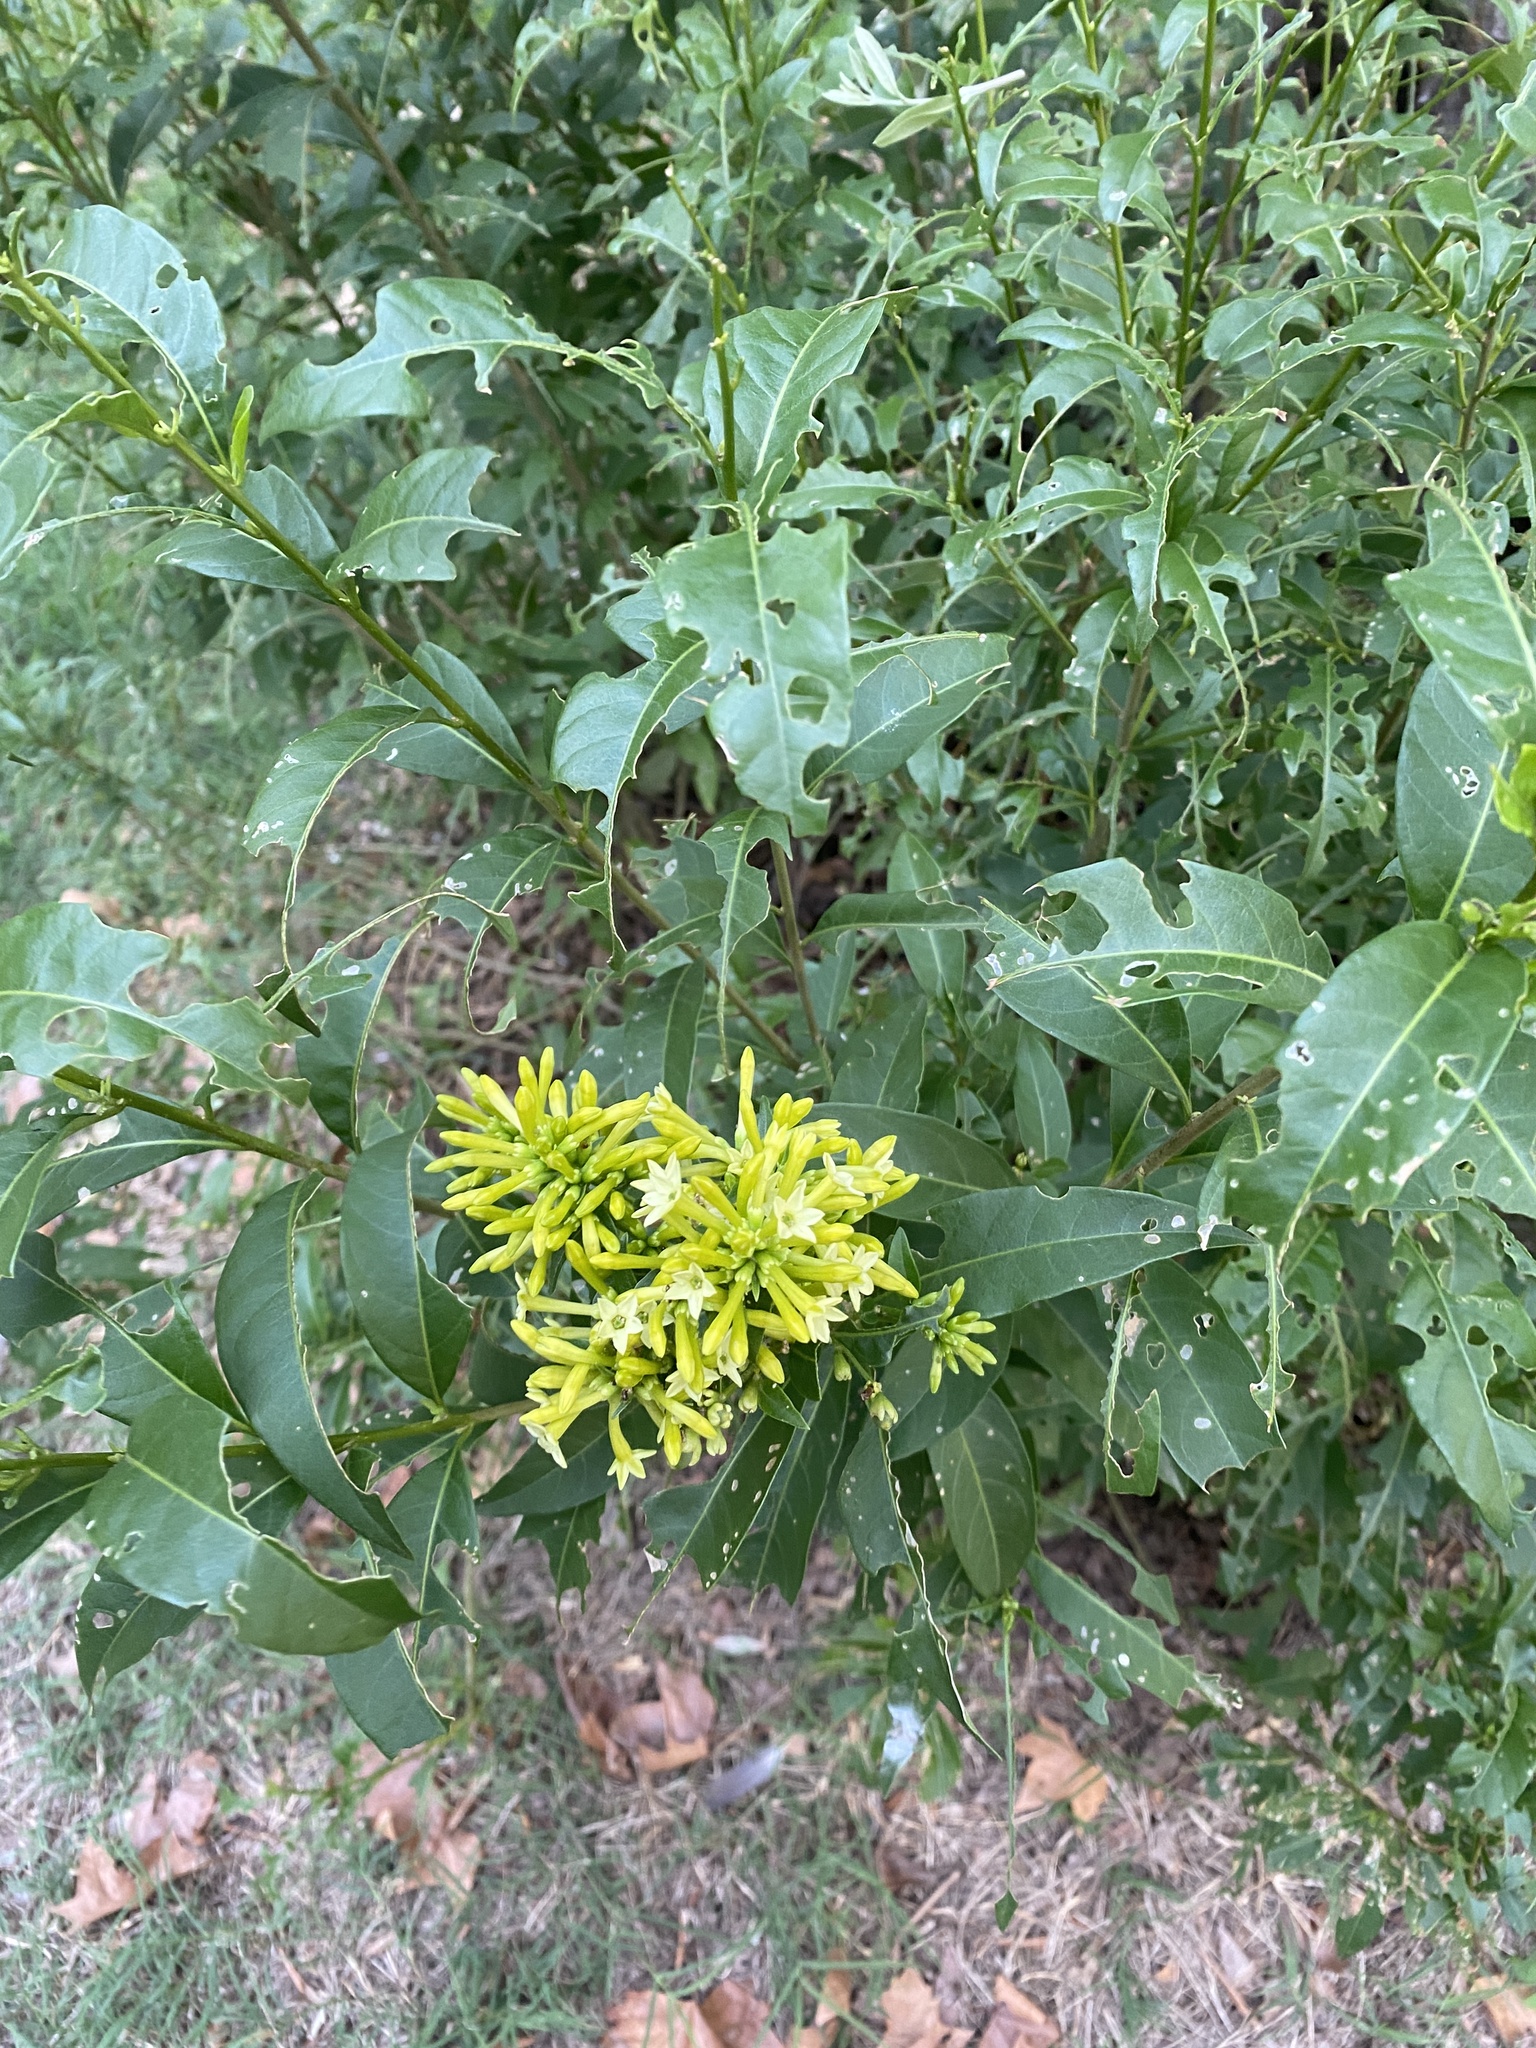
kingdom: Plantae
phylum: Tracheophyta
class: Magnoliopsida
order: Solanales
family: Solanaceae
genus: Cestrum
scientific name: Cestrum parqui
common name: Chilean cestrum
